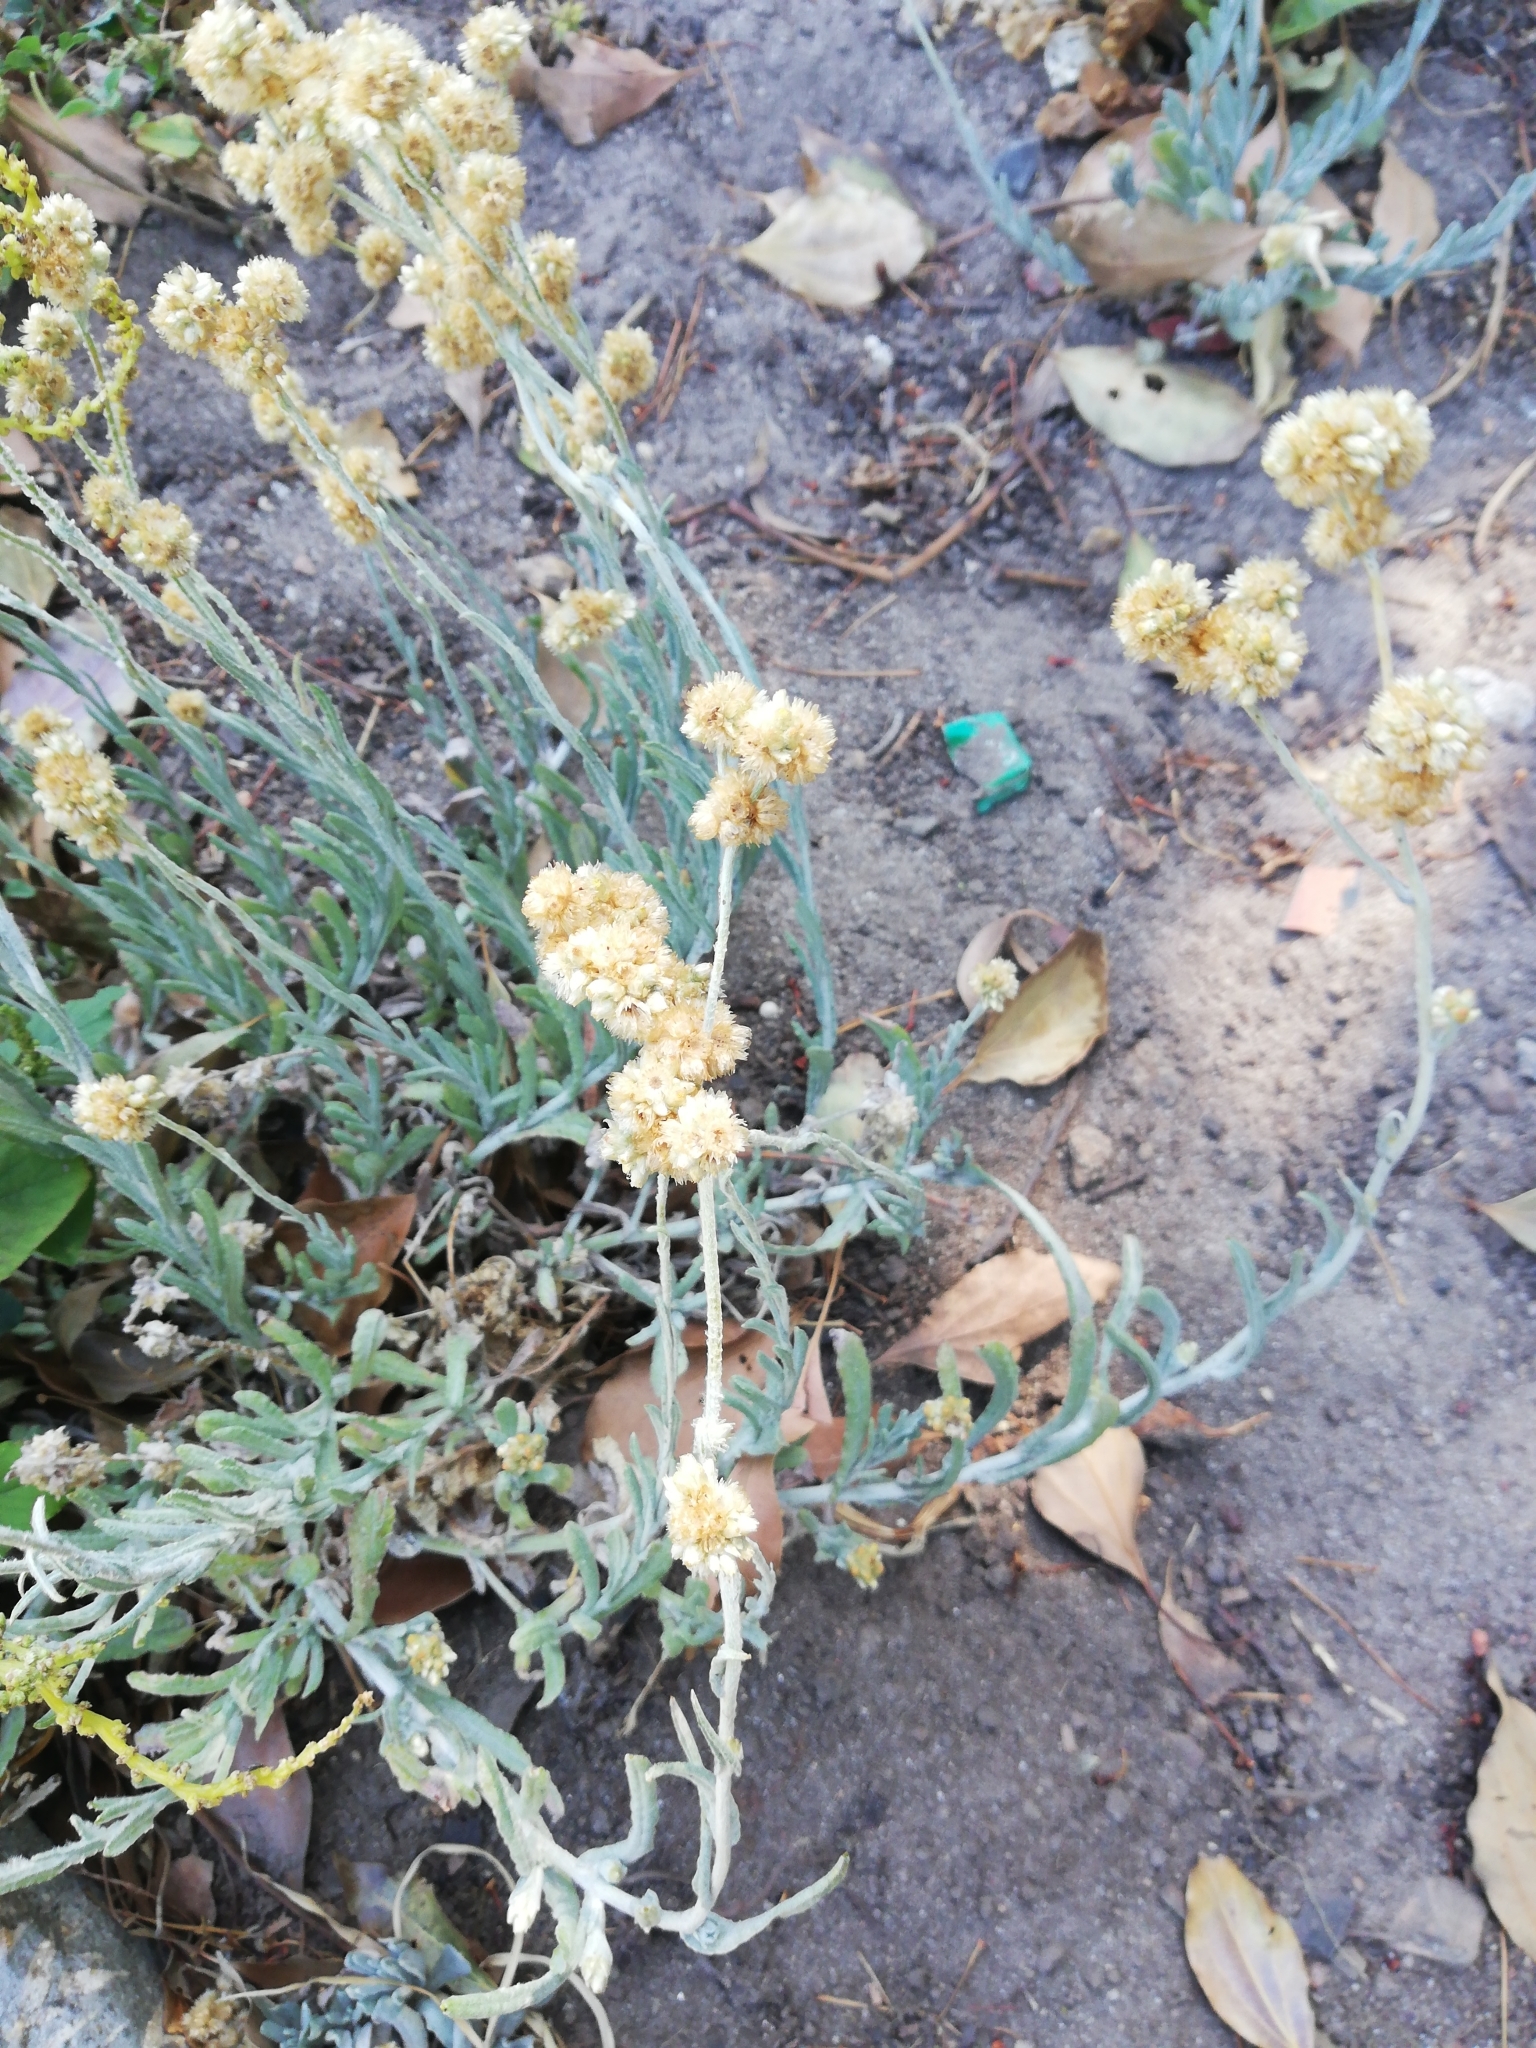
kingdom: Plantae
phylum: Tracheophyta
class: Magnoliopsida
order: Asterales
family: Asteraceae
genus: Pseudognaphalium
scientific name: Pseudognaphalium undulatum
